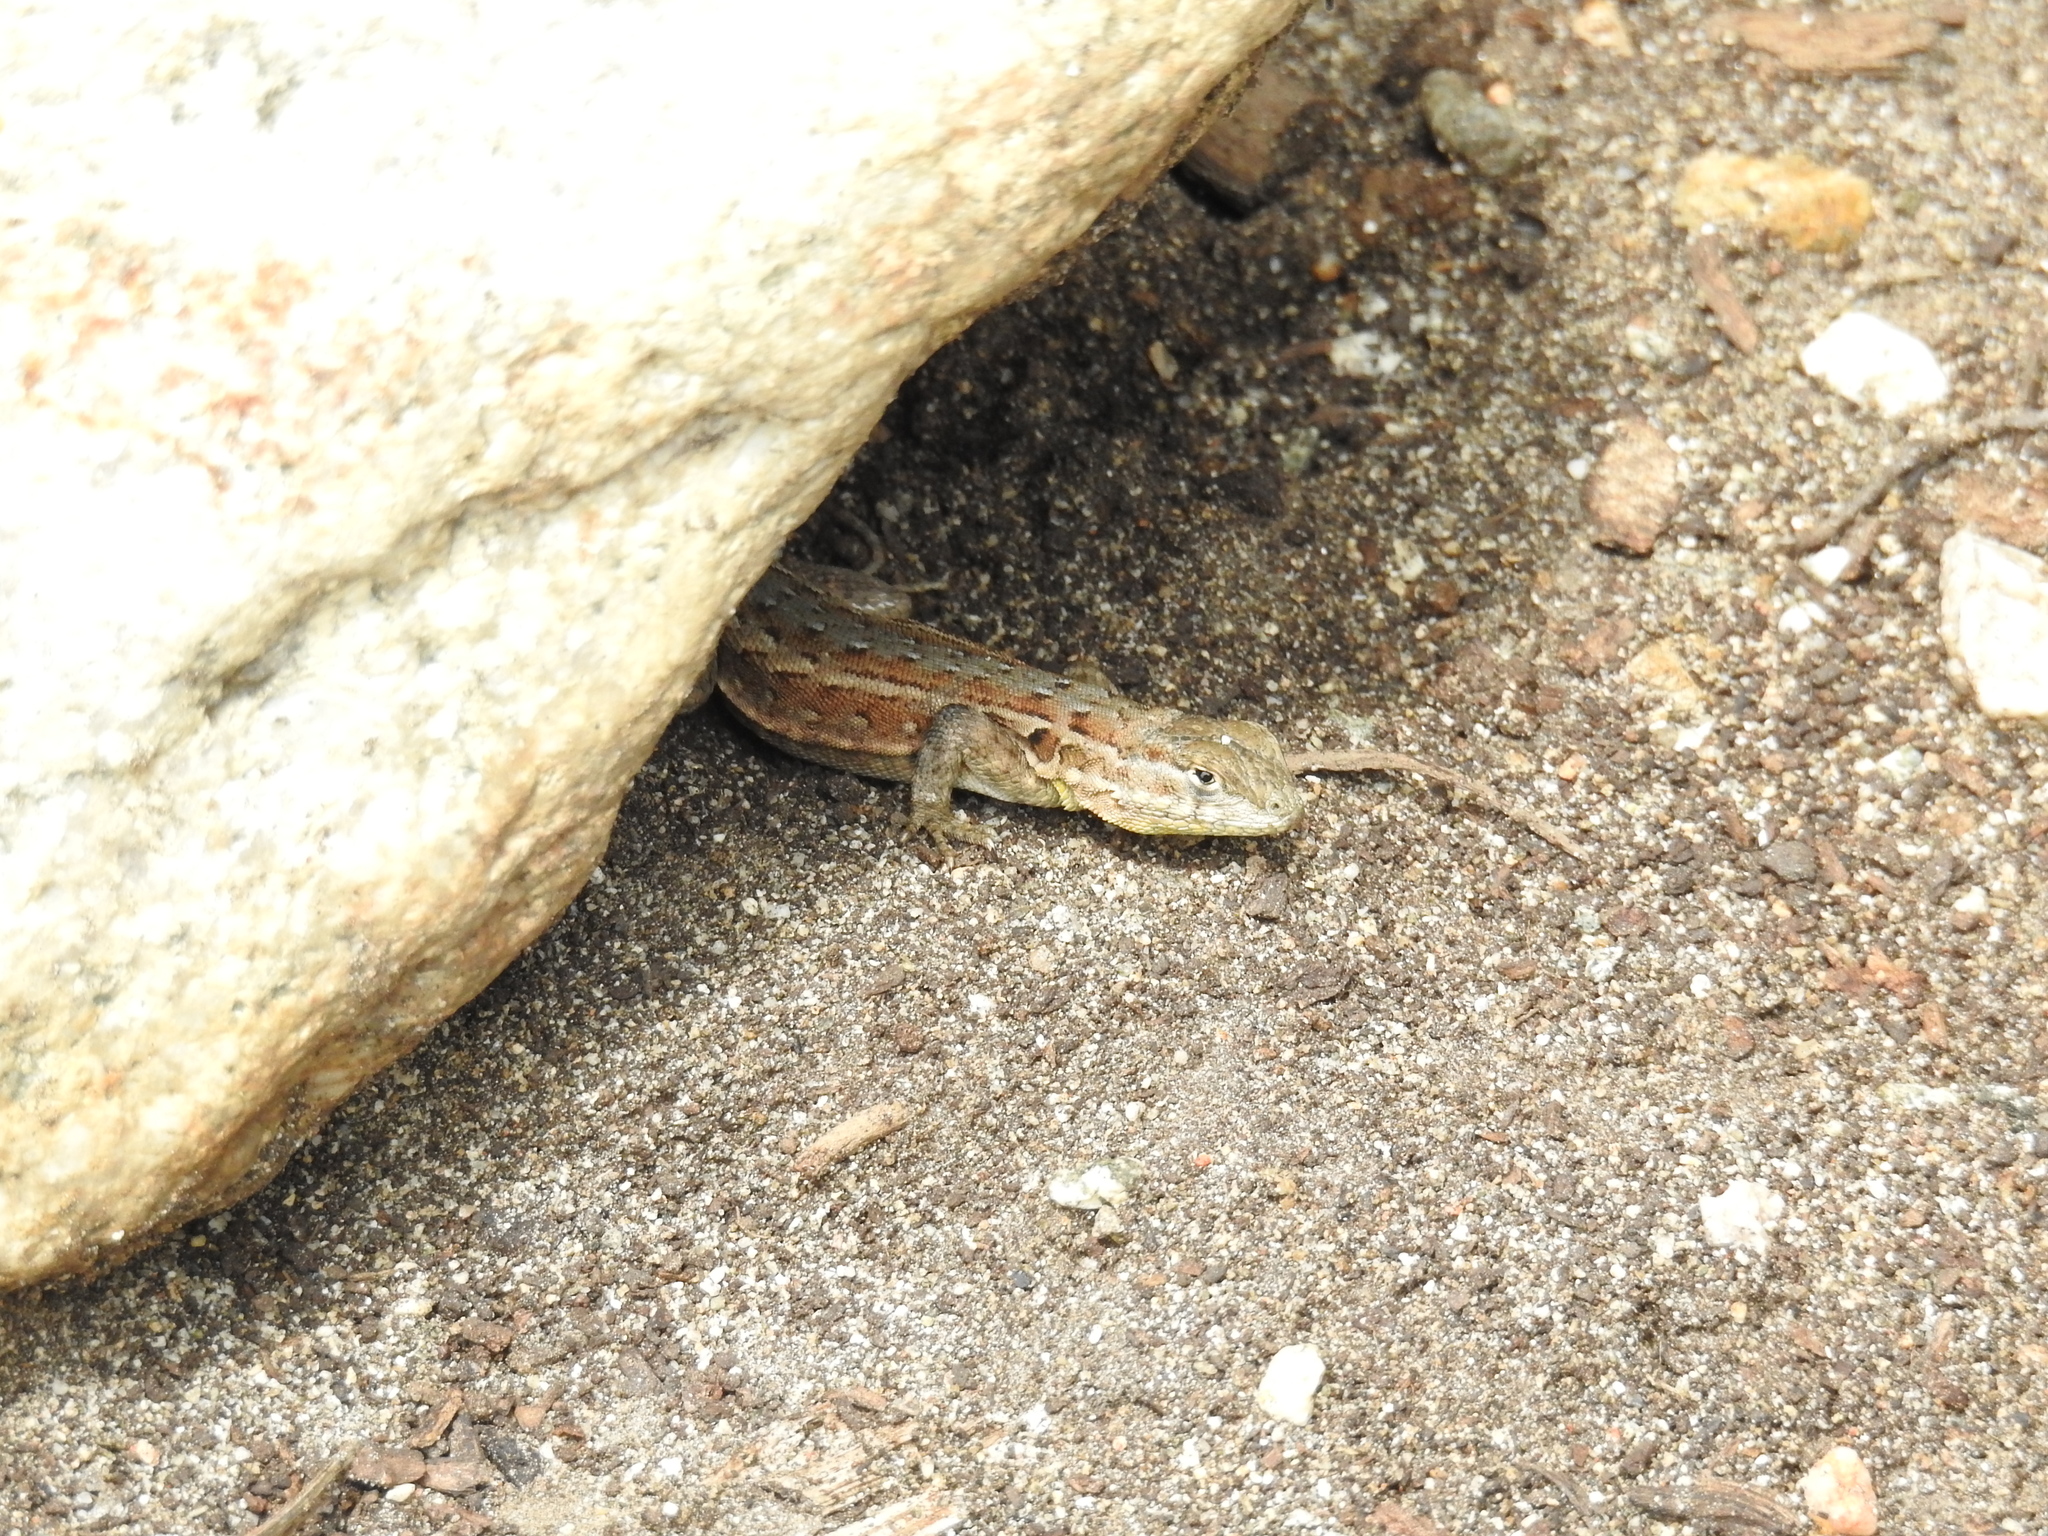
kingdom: Animalia
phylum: Chordata
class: Squamata
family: Phrynosomatidae
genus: Uta
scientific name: Uta stansburiana
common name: Side-blotched lizard
